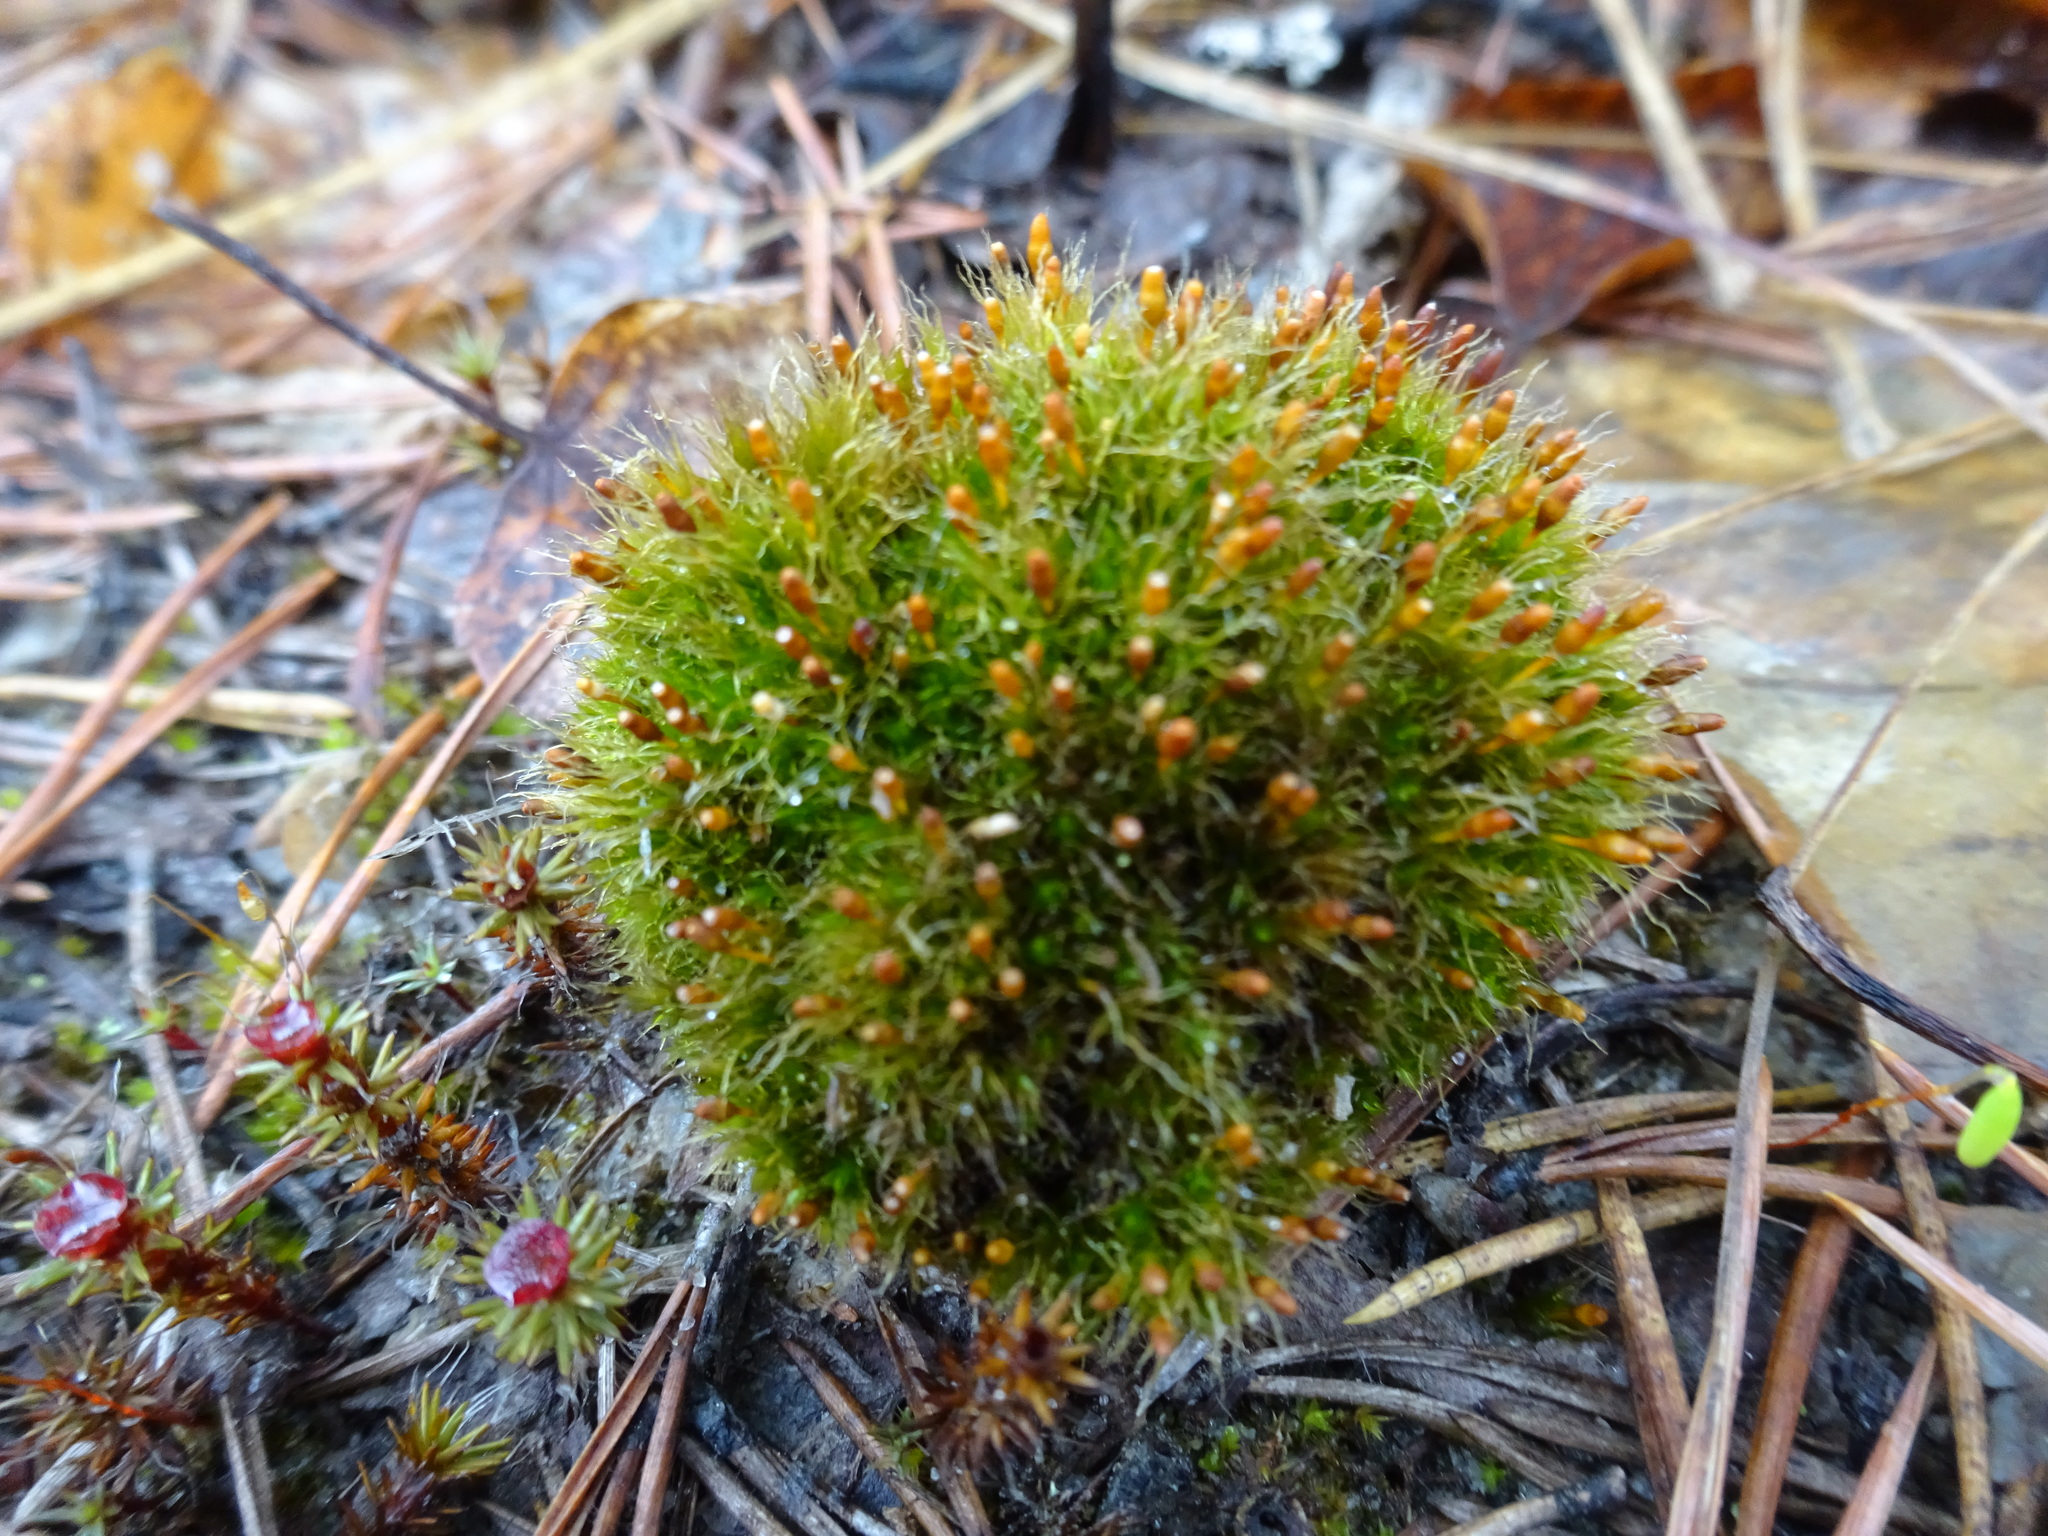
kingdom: Plantae
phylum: Bryophyta
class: Bryopsida
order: Splachnales
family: Splachnaceae
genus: Tetraplodon
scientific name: Tetraplodon angustatus
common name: Narrow cruet-moss
